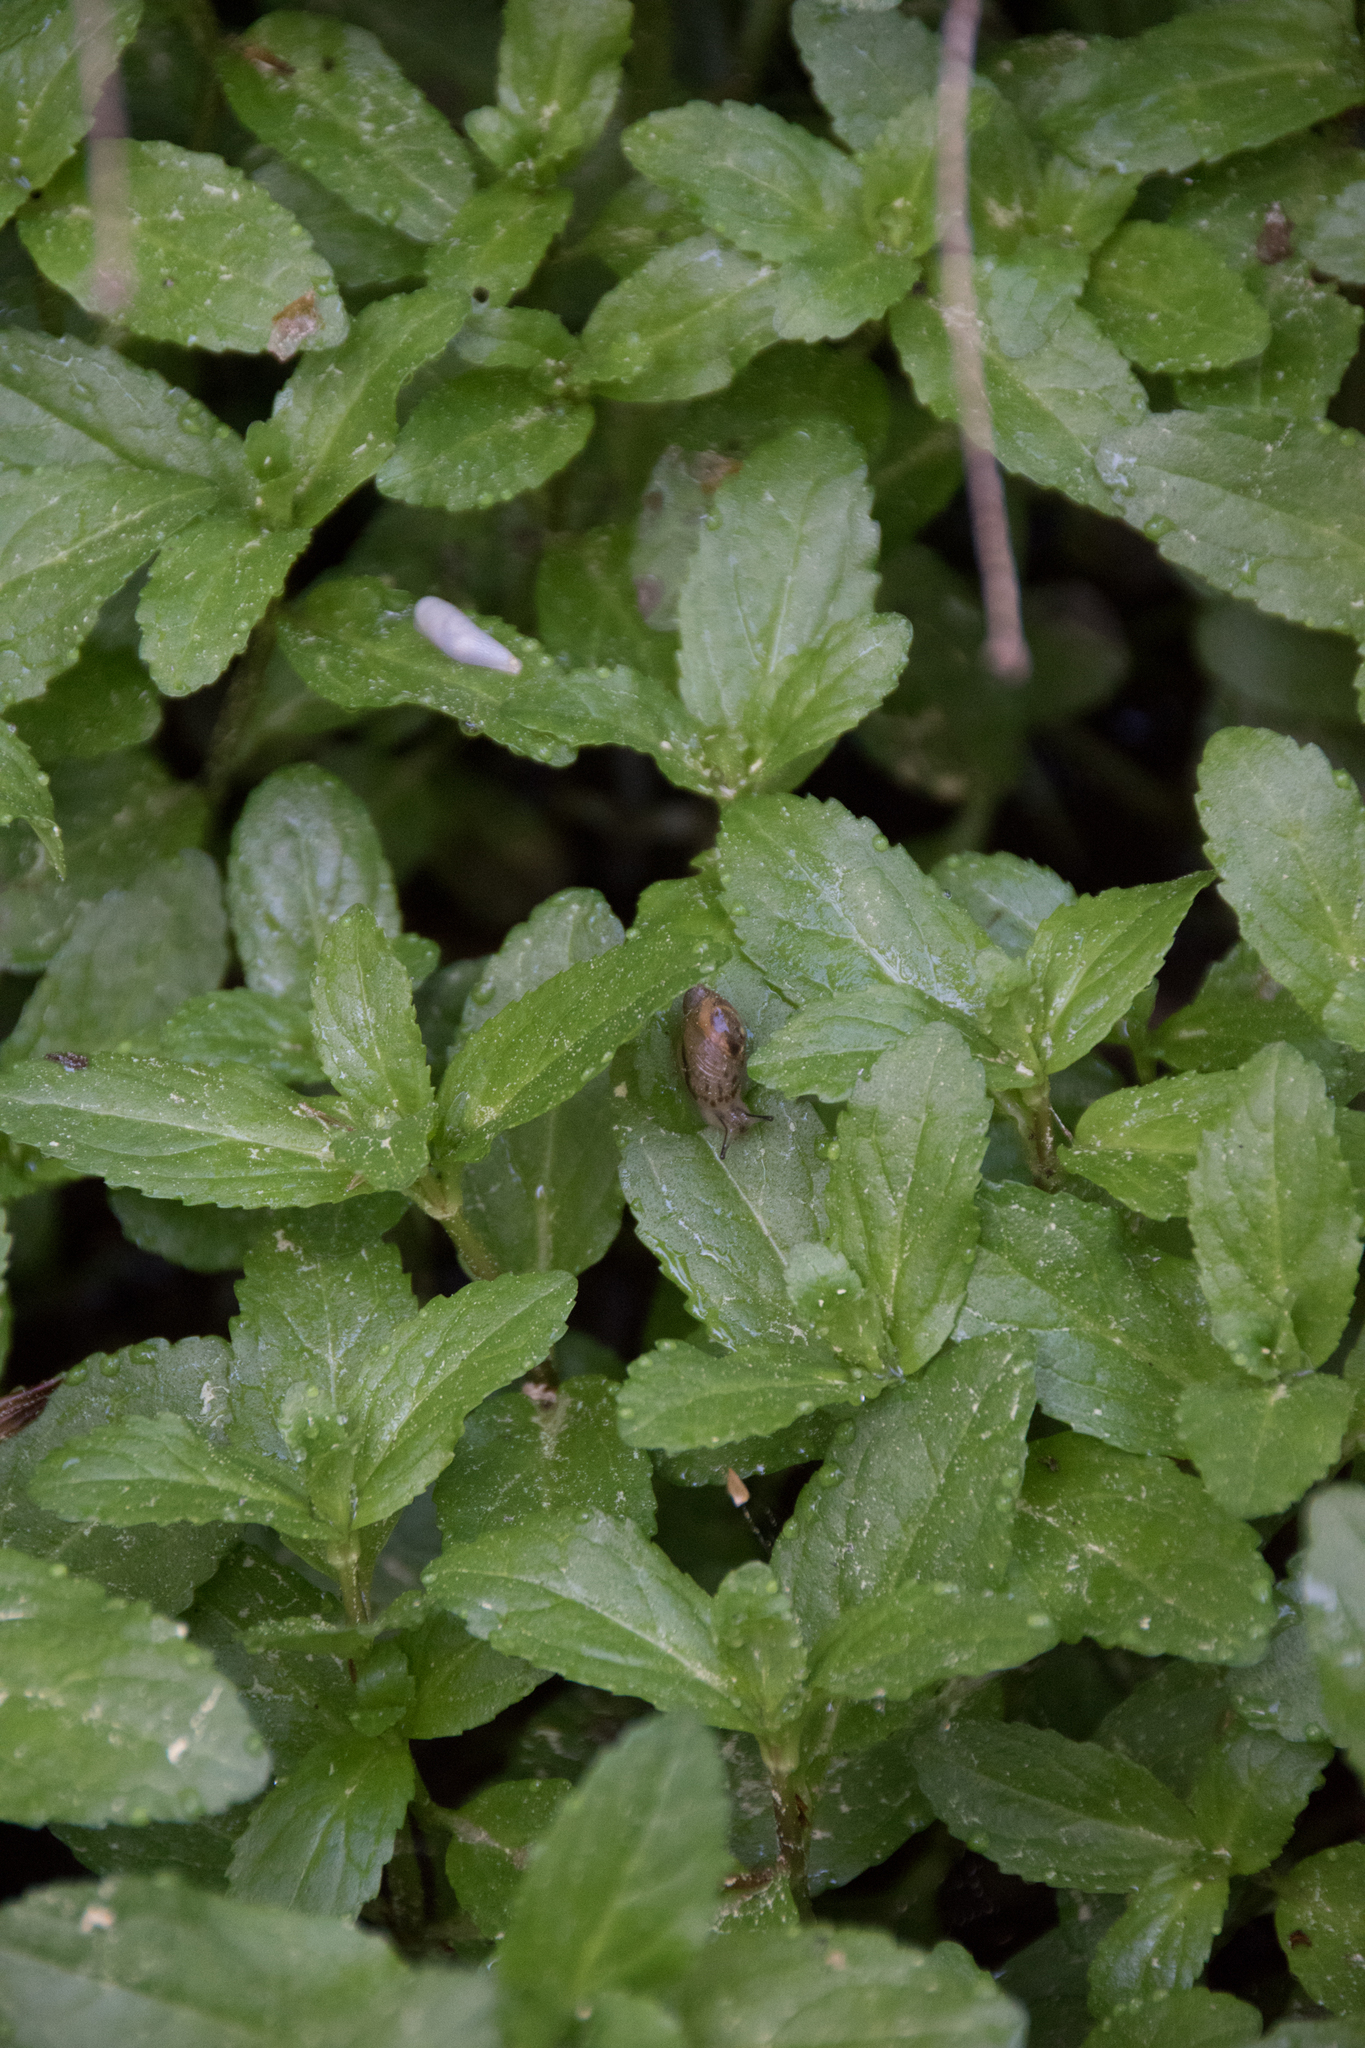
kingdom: Animalia
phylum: Mollusca
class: Gastropoda
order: Stylommatophora
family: Succineidae
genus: Succinea
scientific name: Succinea putris
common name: European ambersnail
